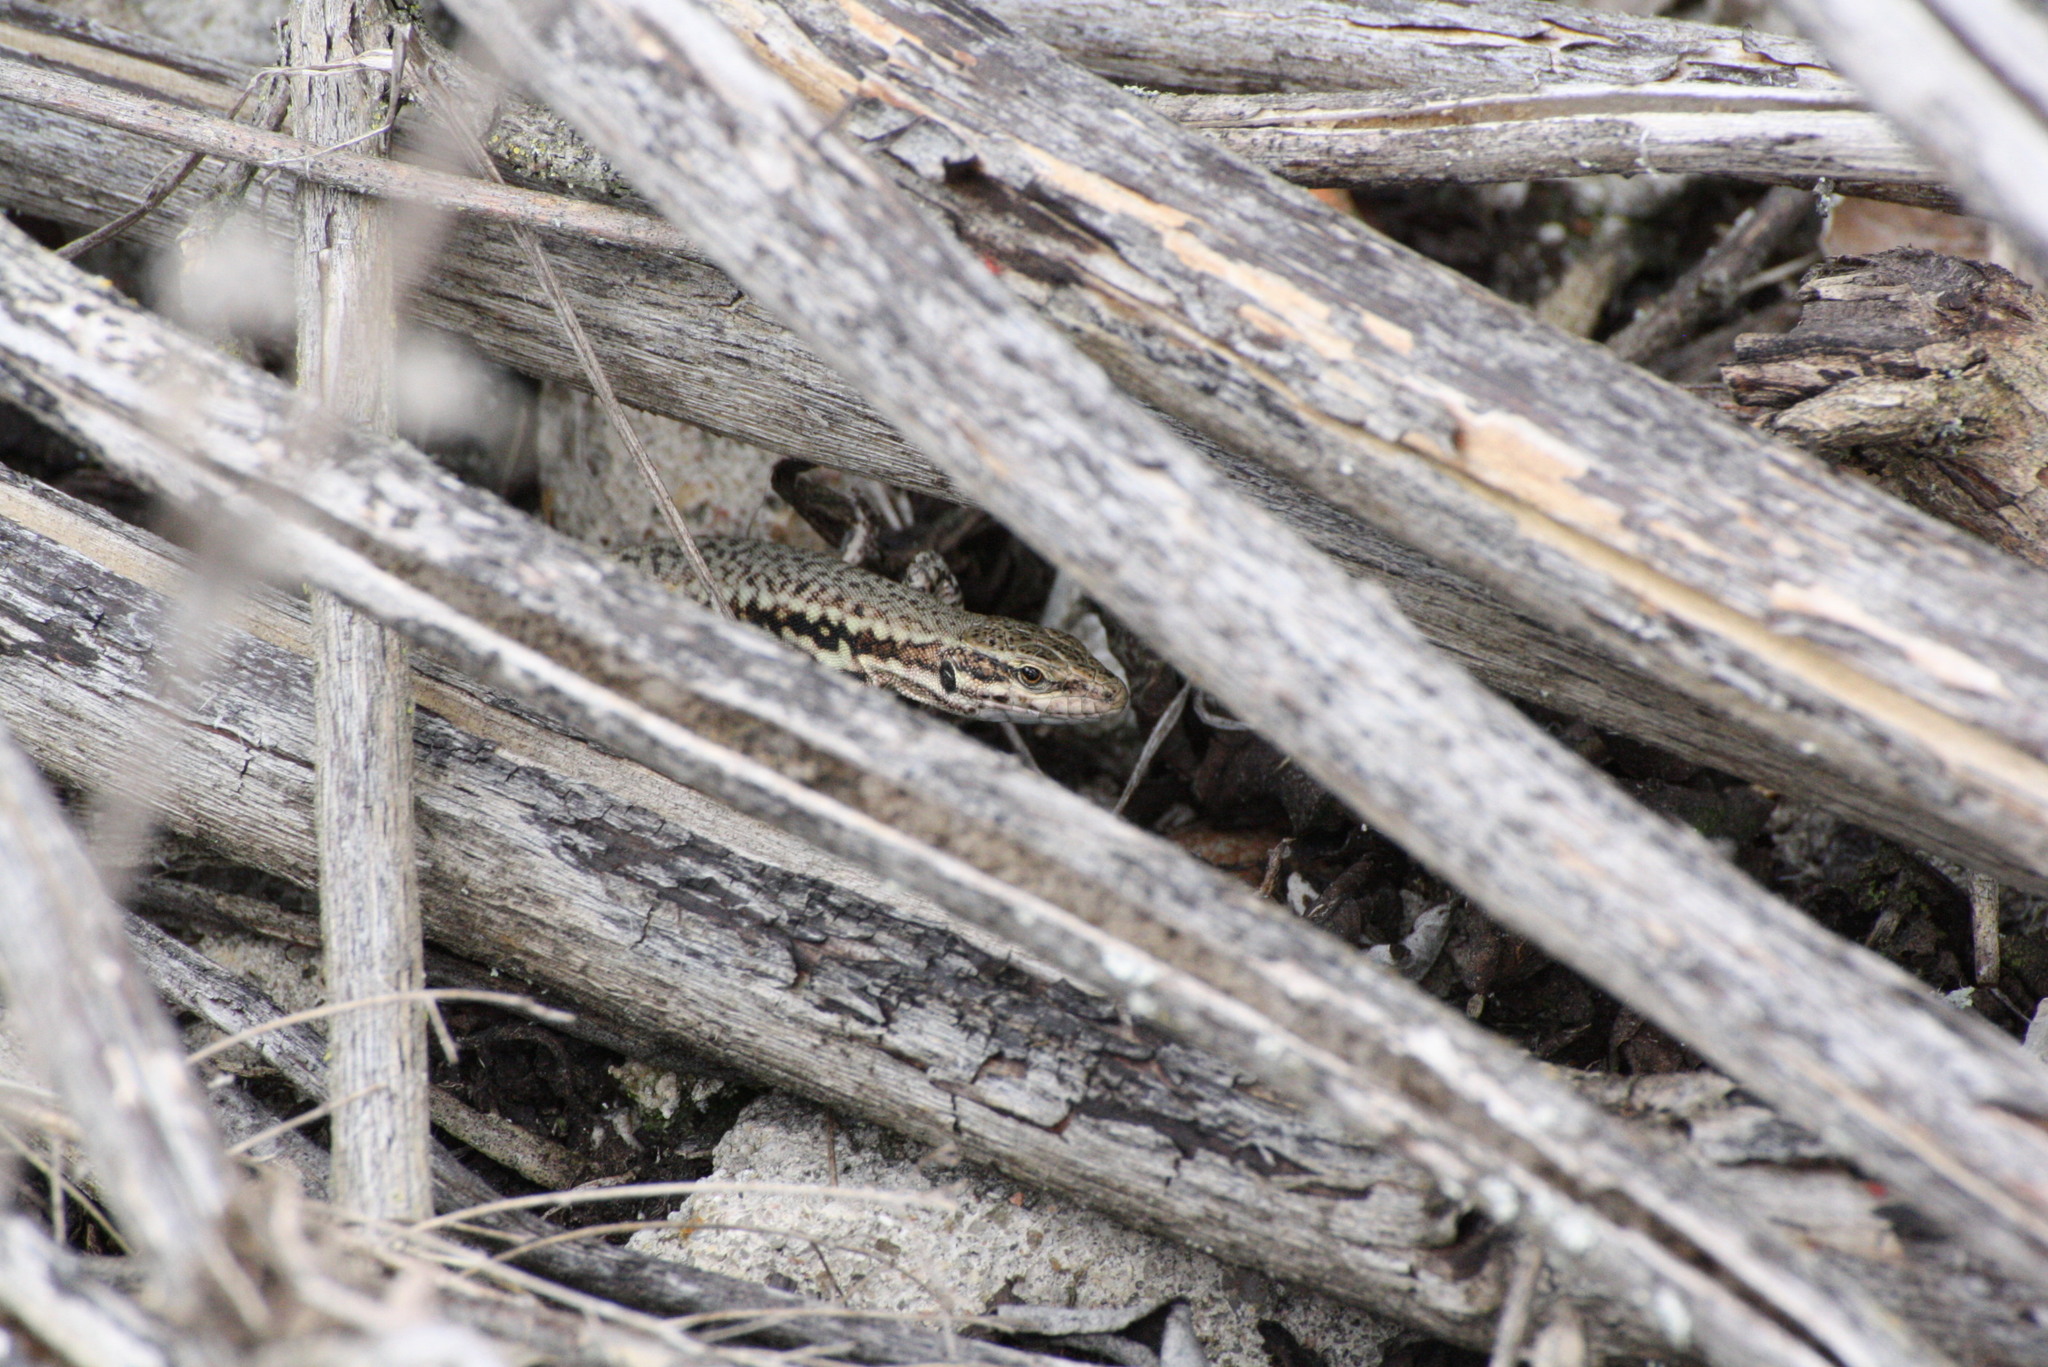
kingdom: Animalia
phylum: Chordata
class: Squamata
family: Lacertidae
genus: Podarcis
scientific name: Podarcis muralis
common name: Common wall lizard
